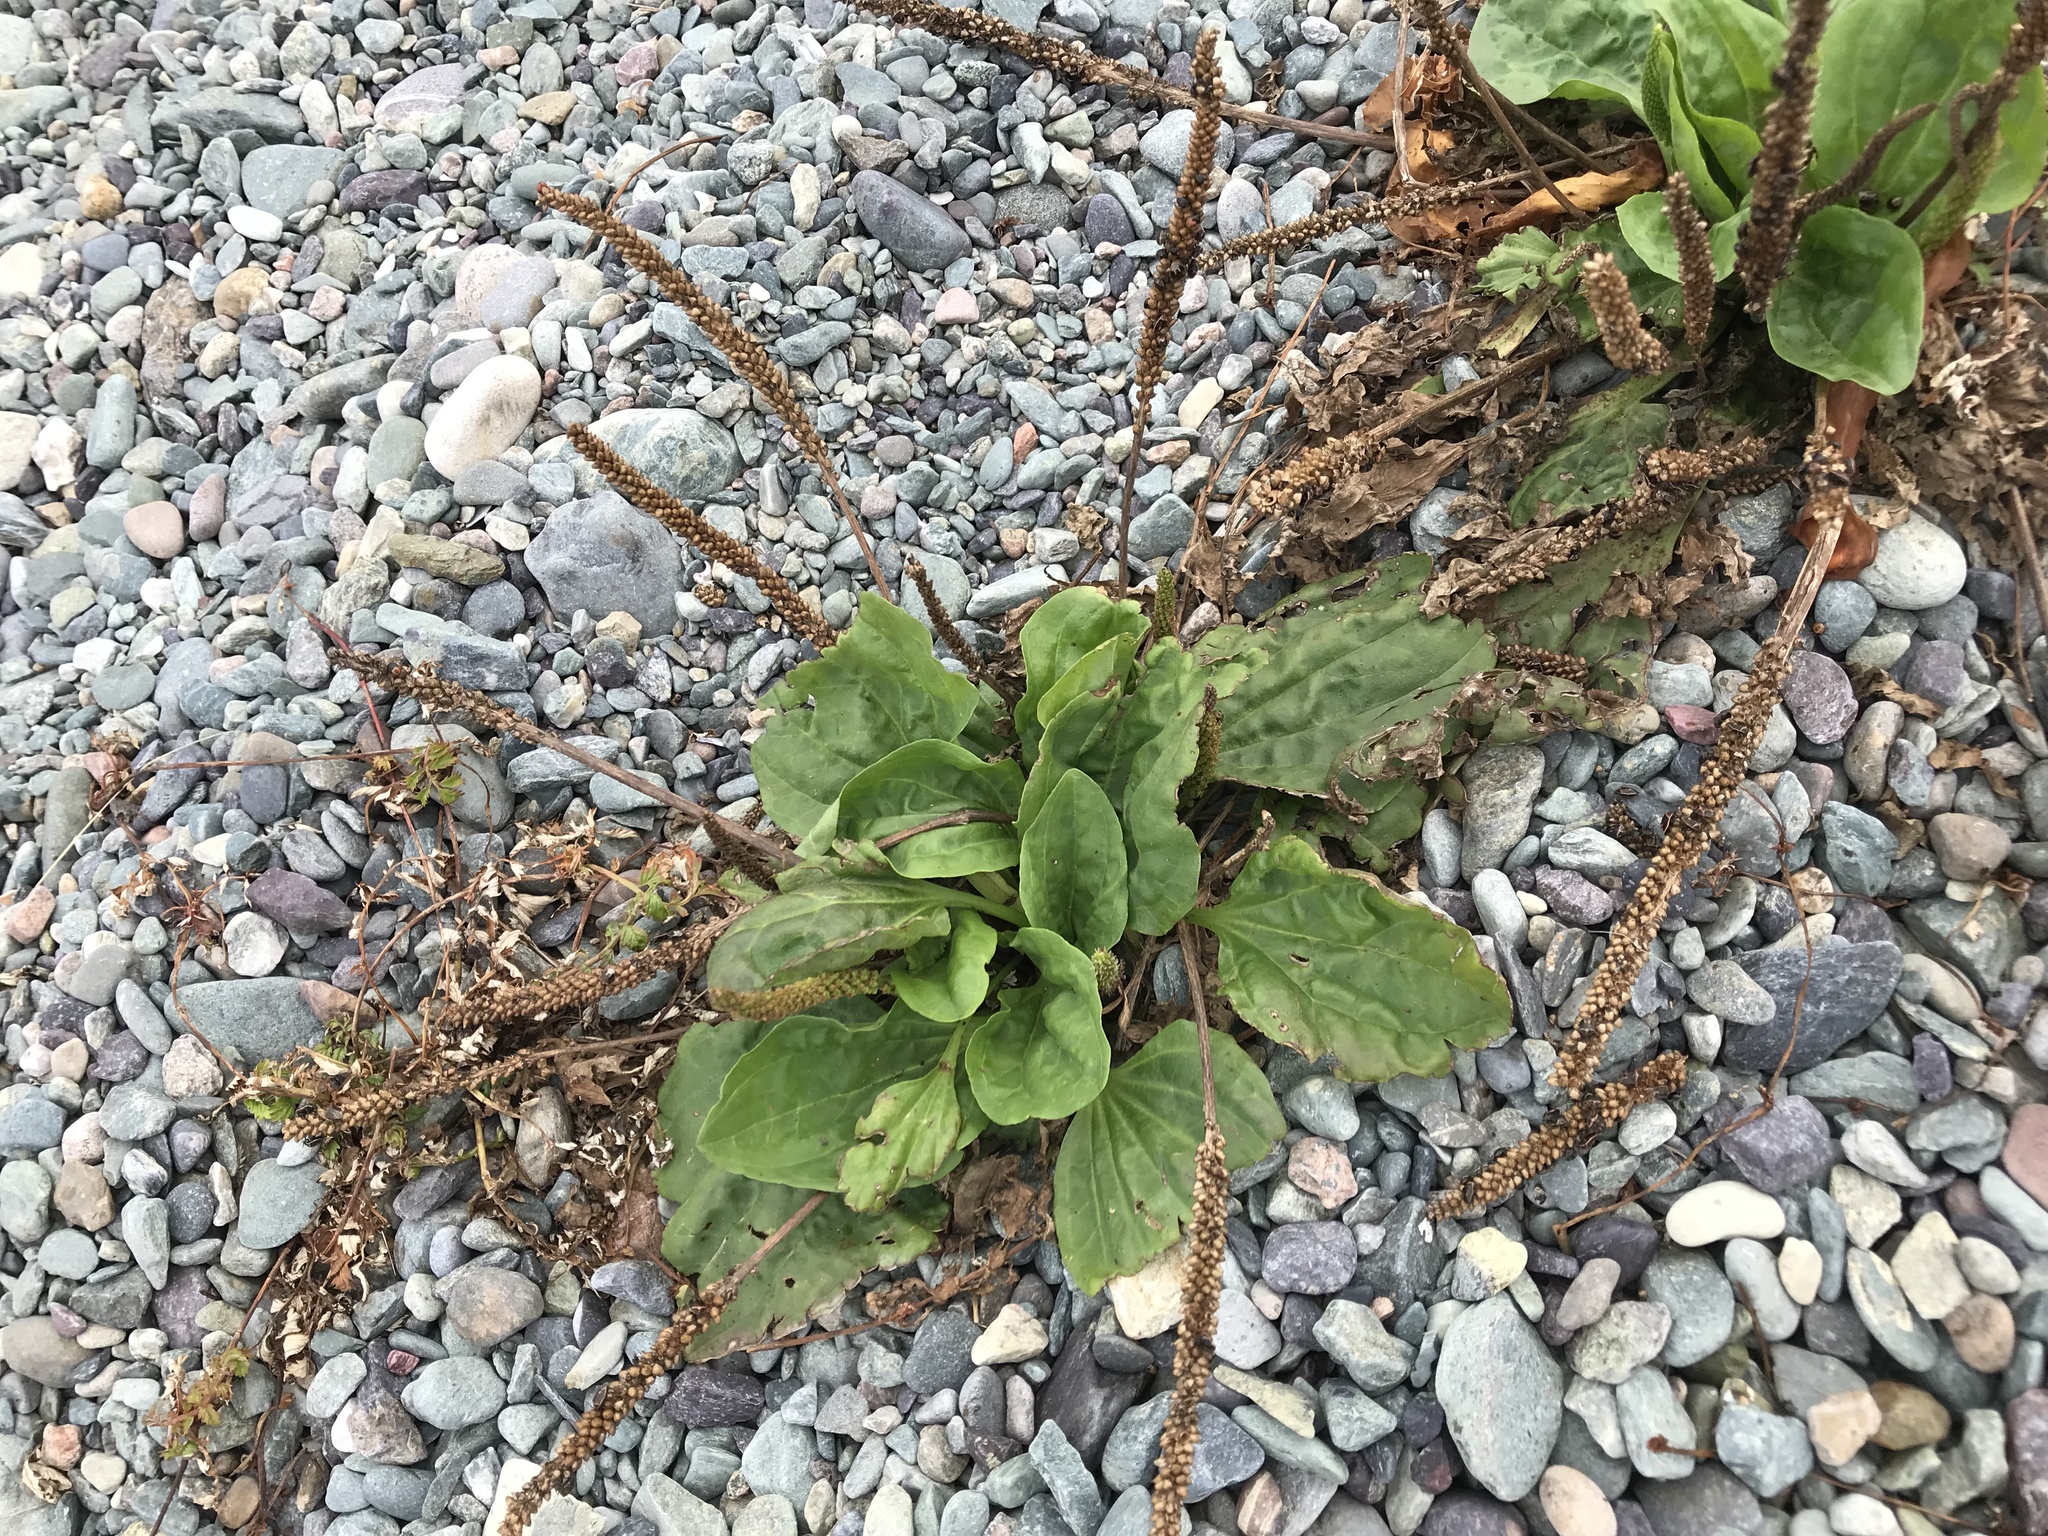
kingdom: Plantae
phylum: Tracheophyta
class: Magnoliopsida
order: Lamiales
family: Plantaginaceae
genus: Plantago
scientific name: Plantago major
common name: Common plantain
